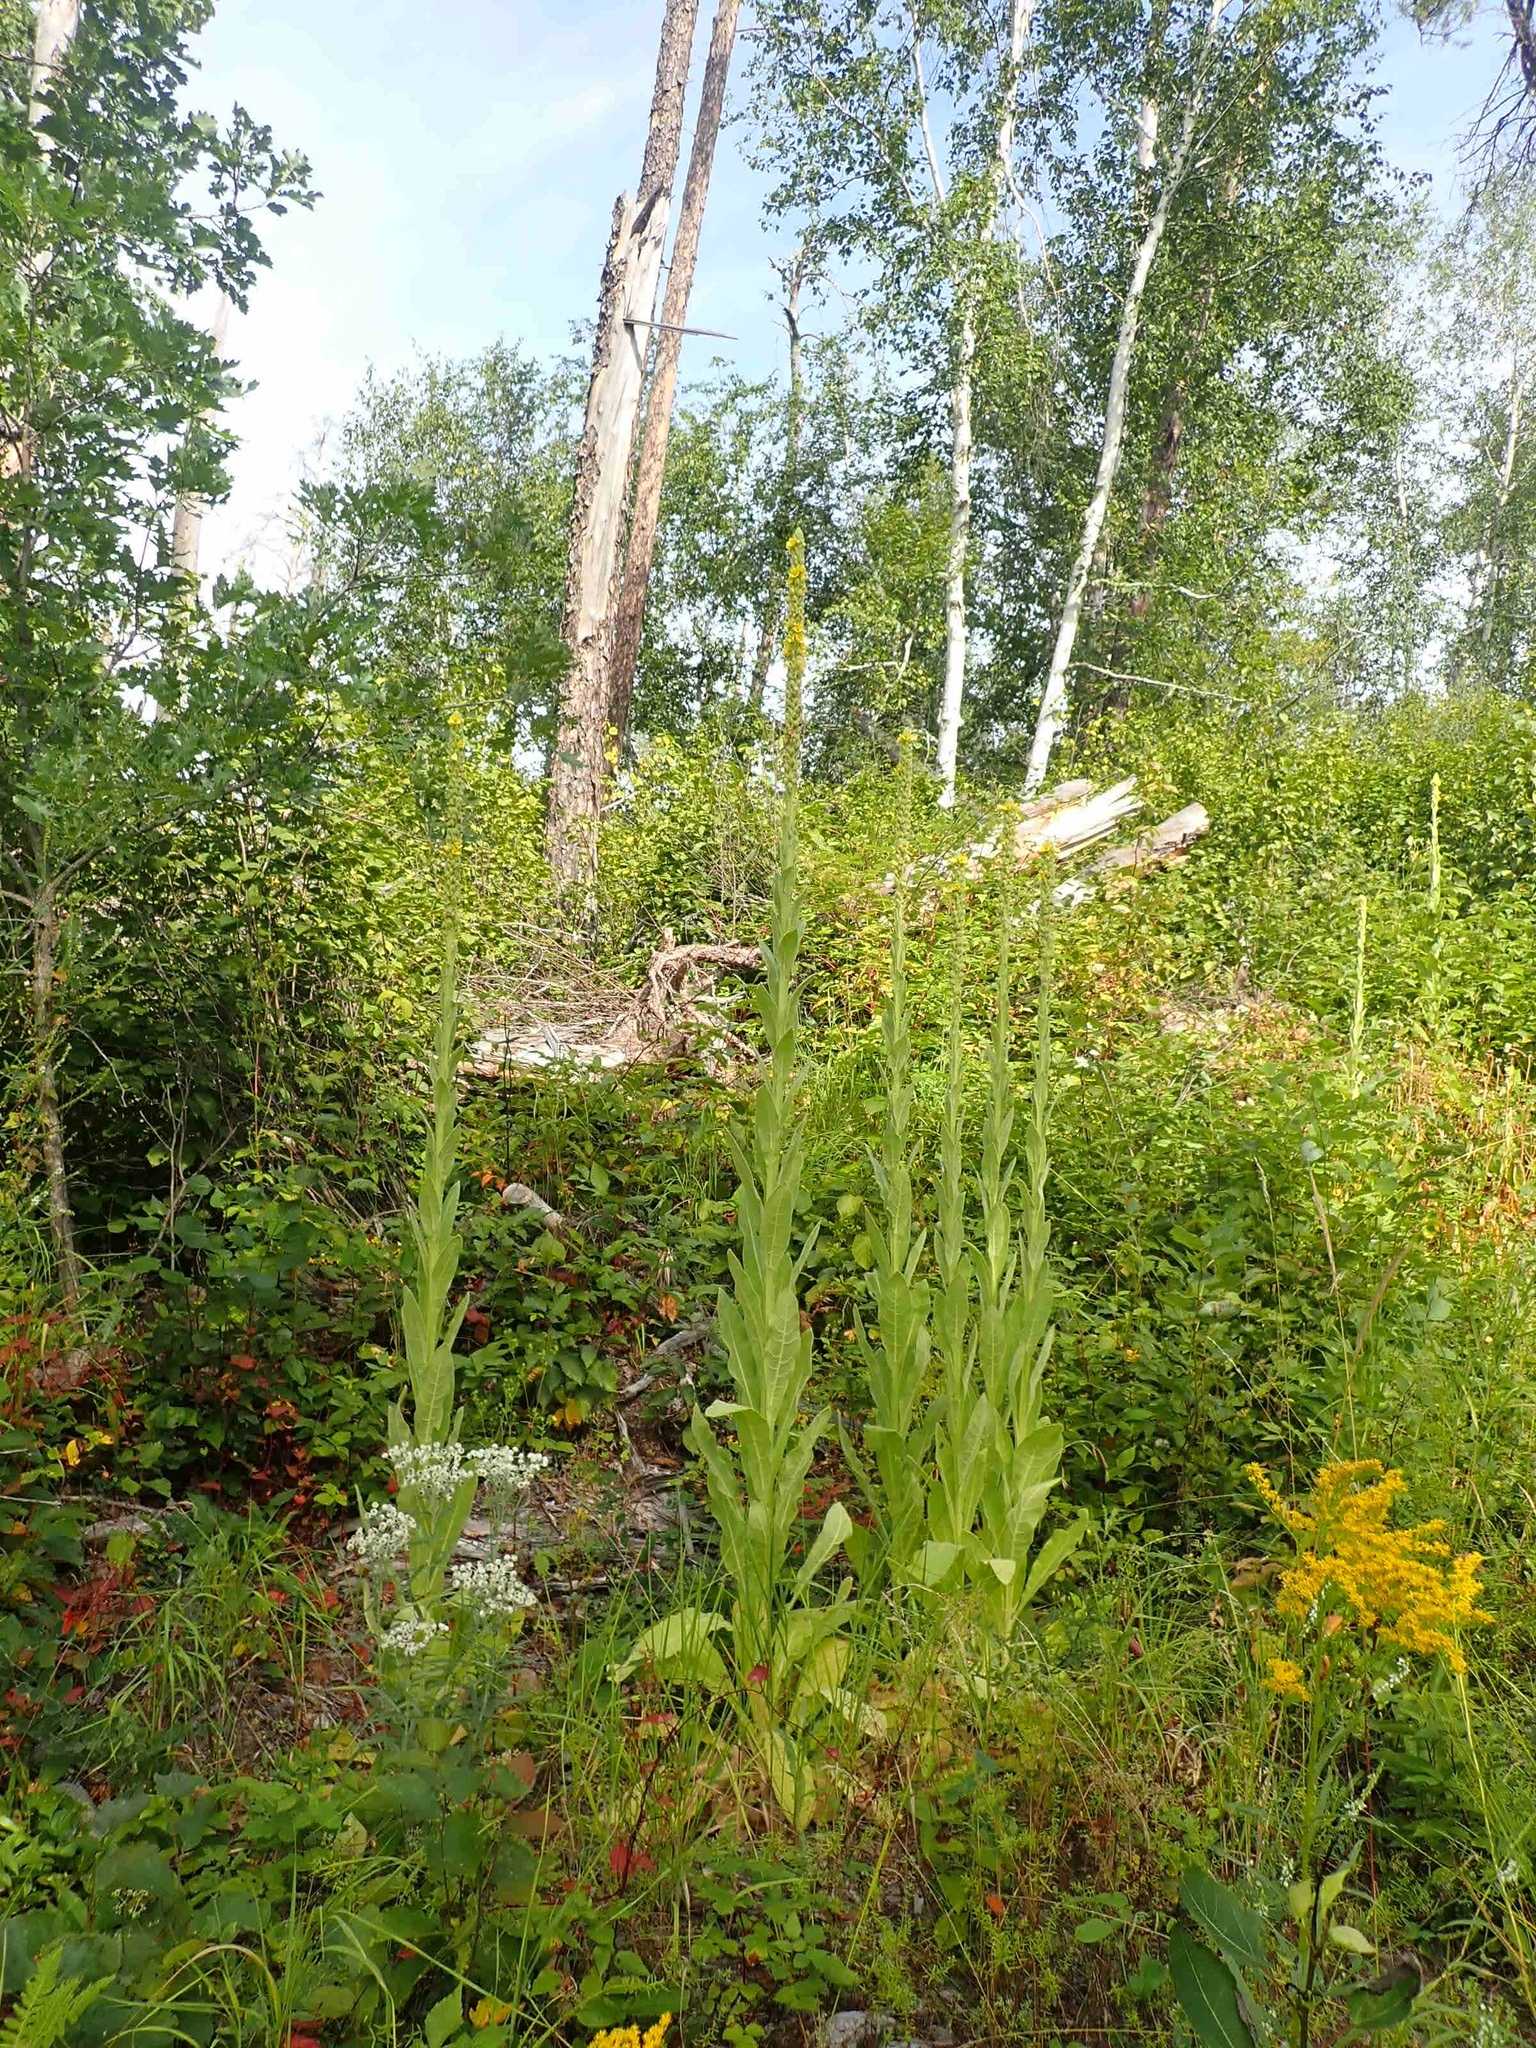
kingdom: Plantae
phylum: Tracheophyta
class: Magnoliopsida
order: Lamiales
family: Scrophulariaceae
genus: Verbascum
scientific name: Verbascum thapsus
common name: Common mullein
